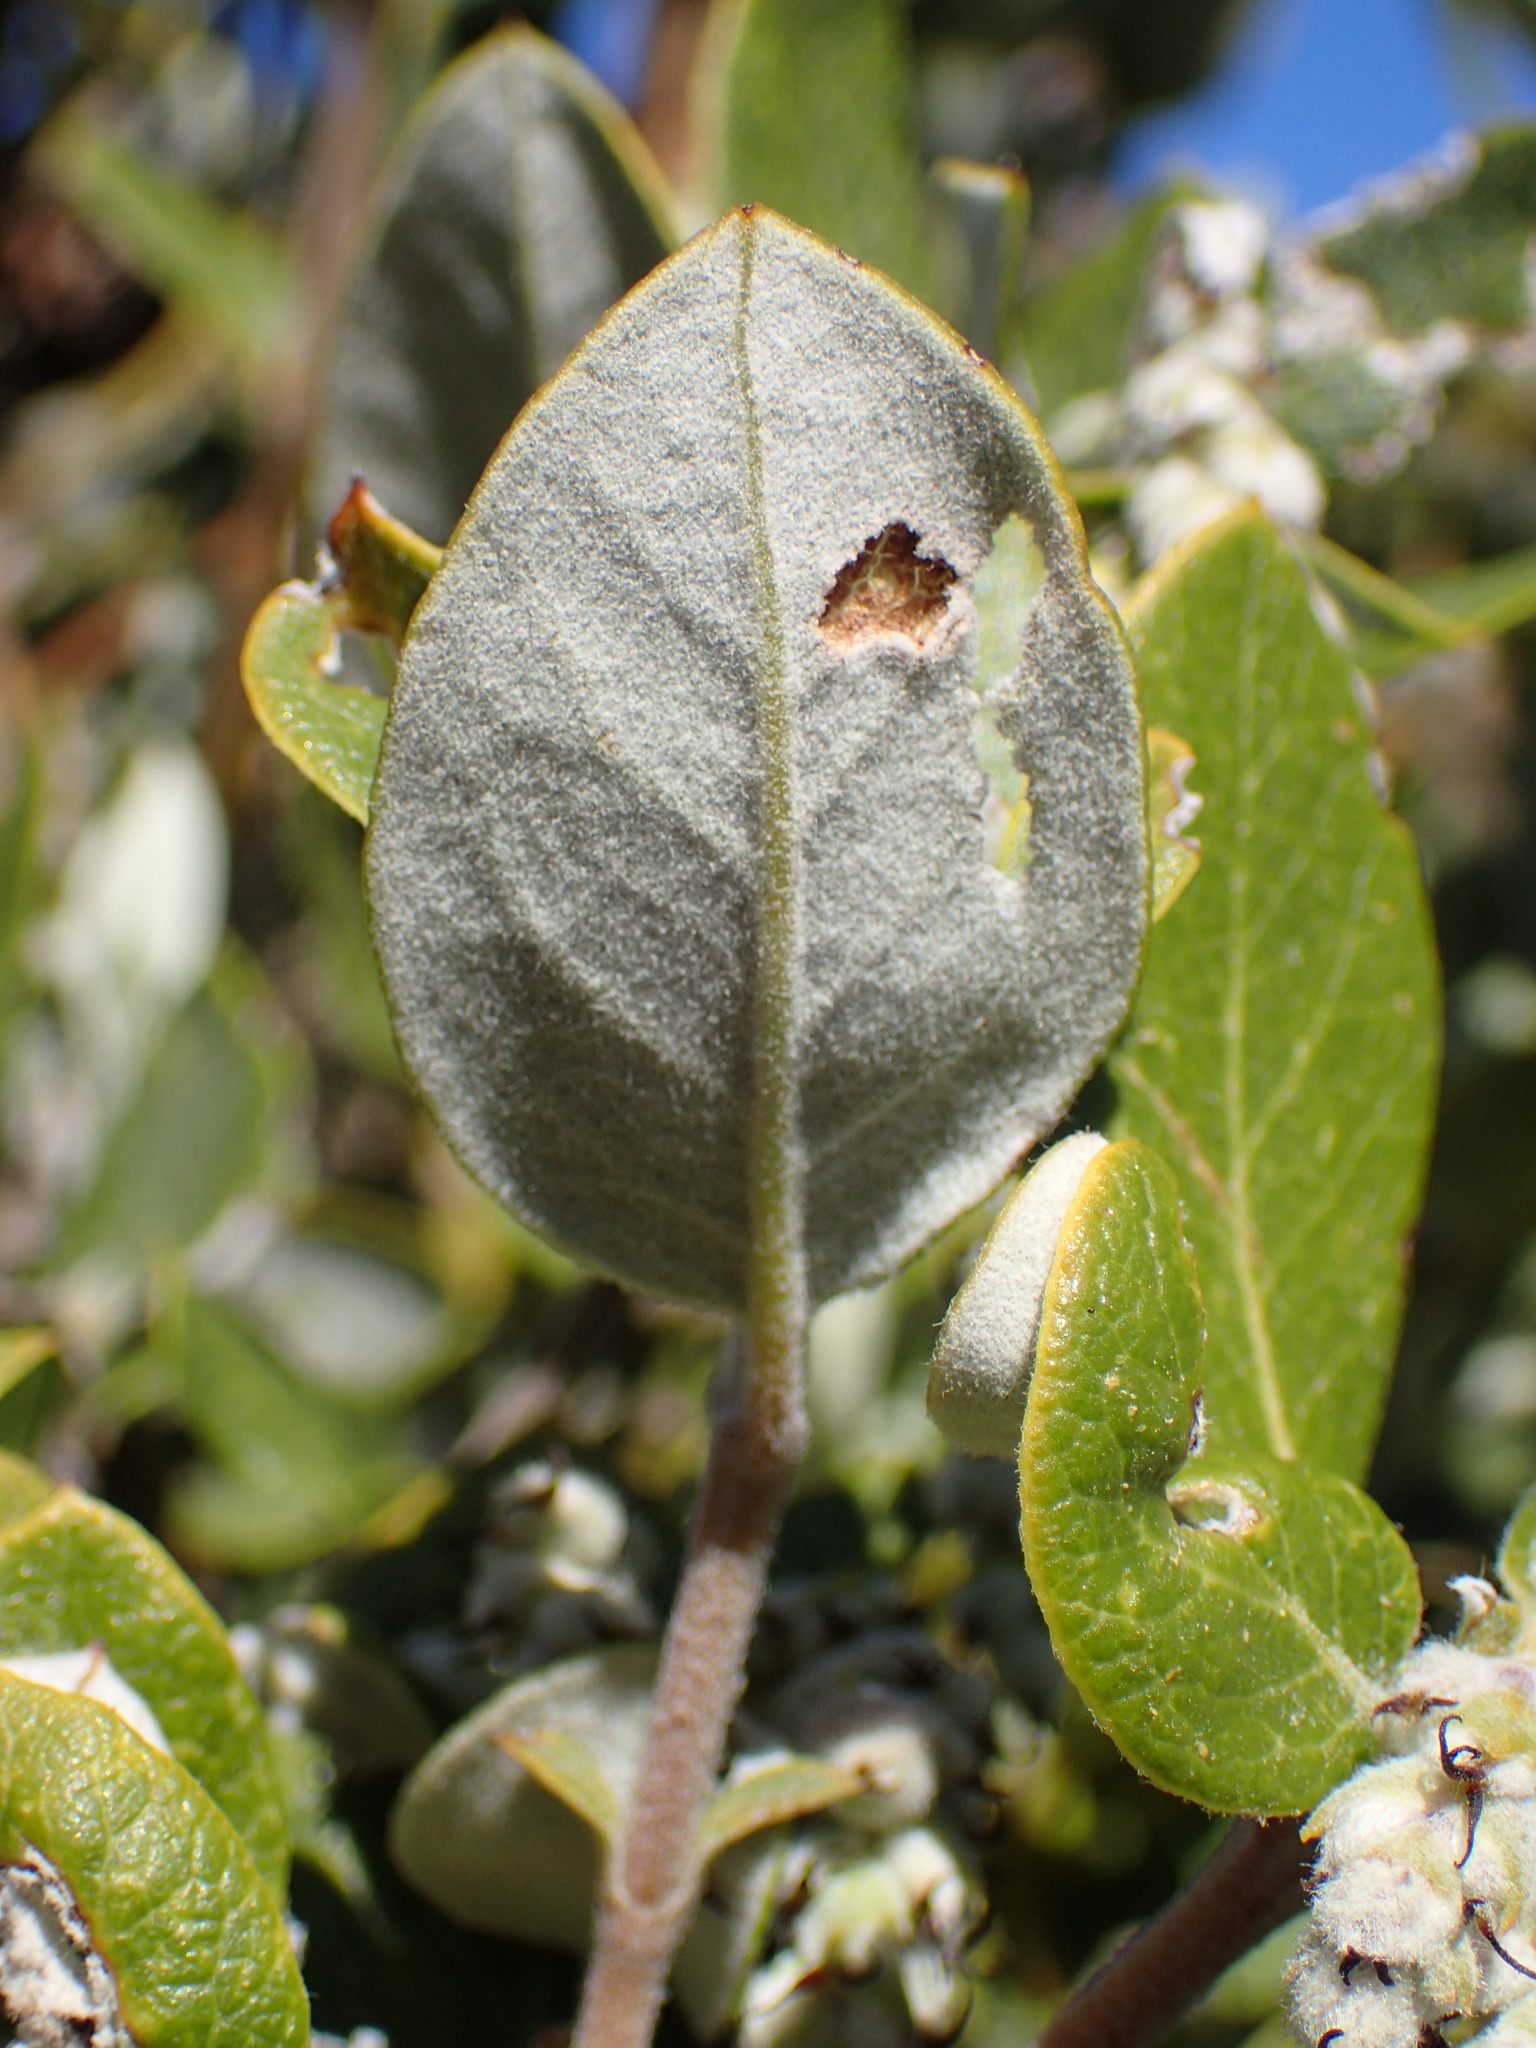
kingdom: Plantae
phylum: Tracheophyta
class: Magnoliopsida
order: Garryales
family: Garryaceae
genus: Garrya
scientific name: Garrya veatchii
